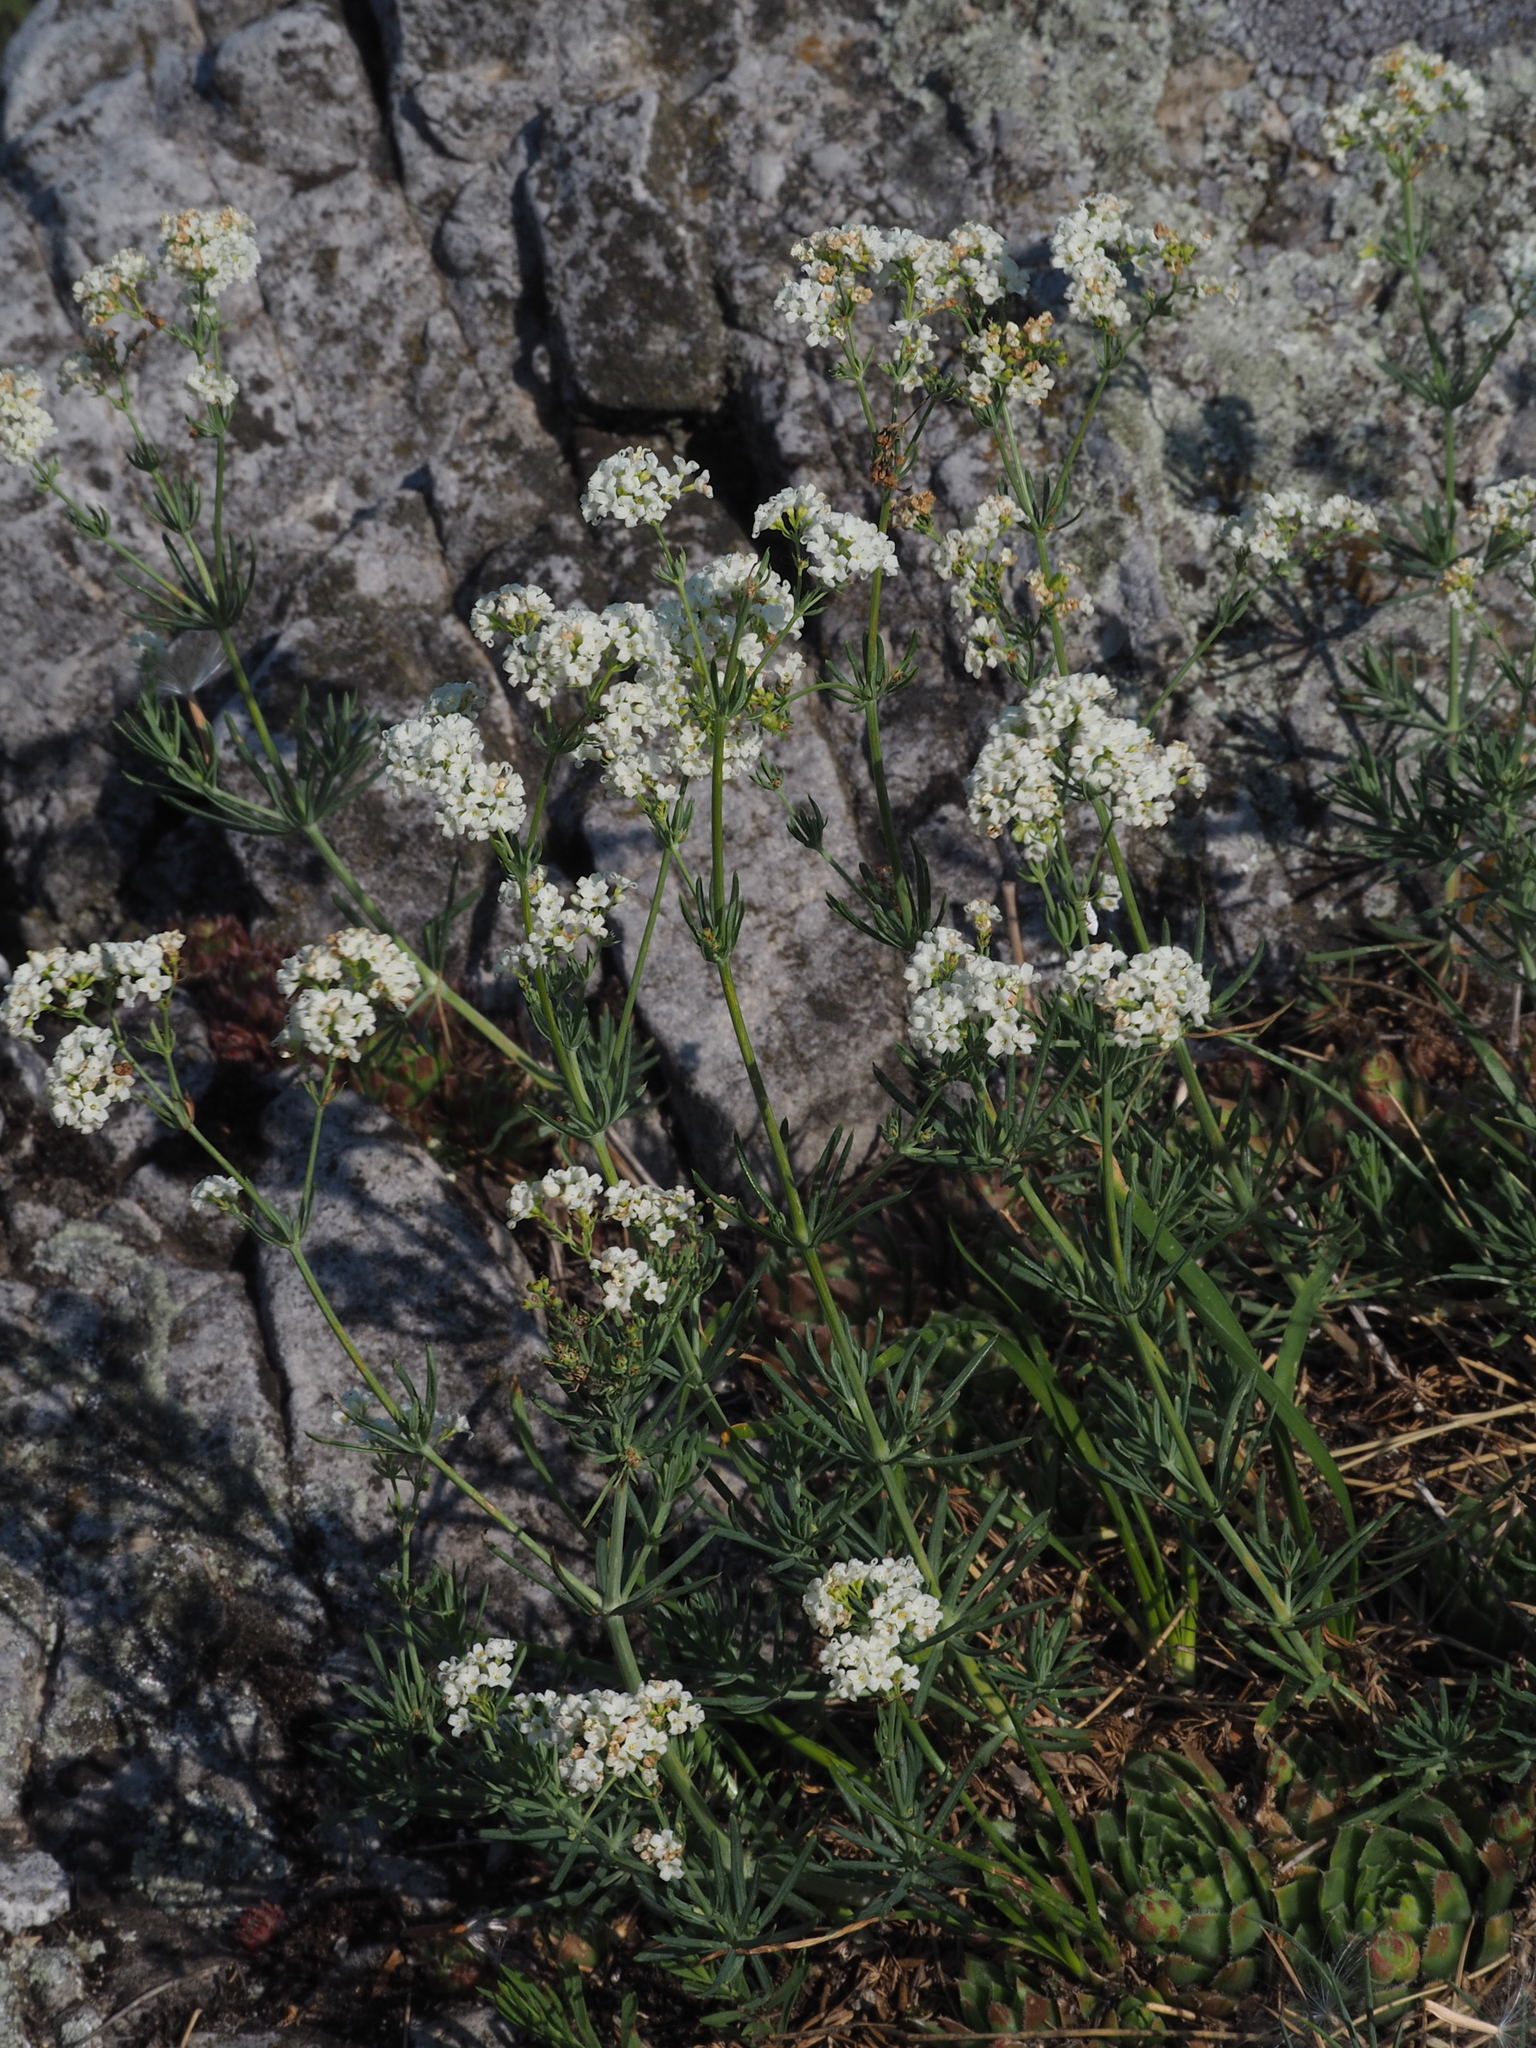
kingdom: Plantae
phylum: Tracheophyta
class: Magnoliopsida
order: Gentianales
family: Rubiaceae
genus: Galium
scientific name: Galium glaucum
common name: Waxy bedstraw
